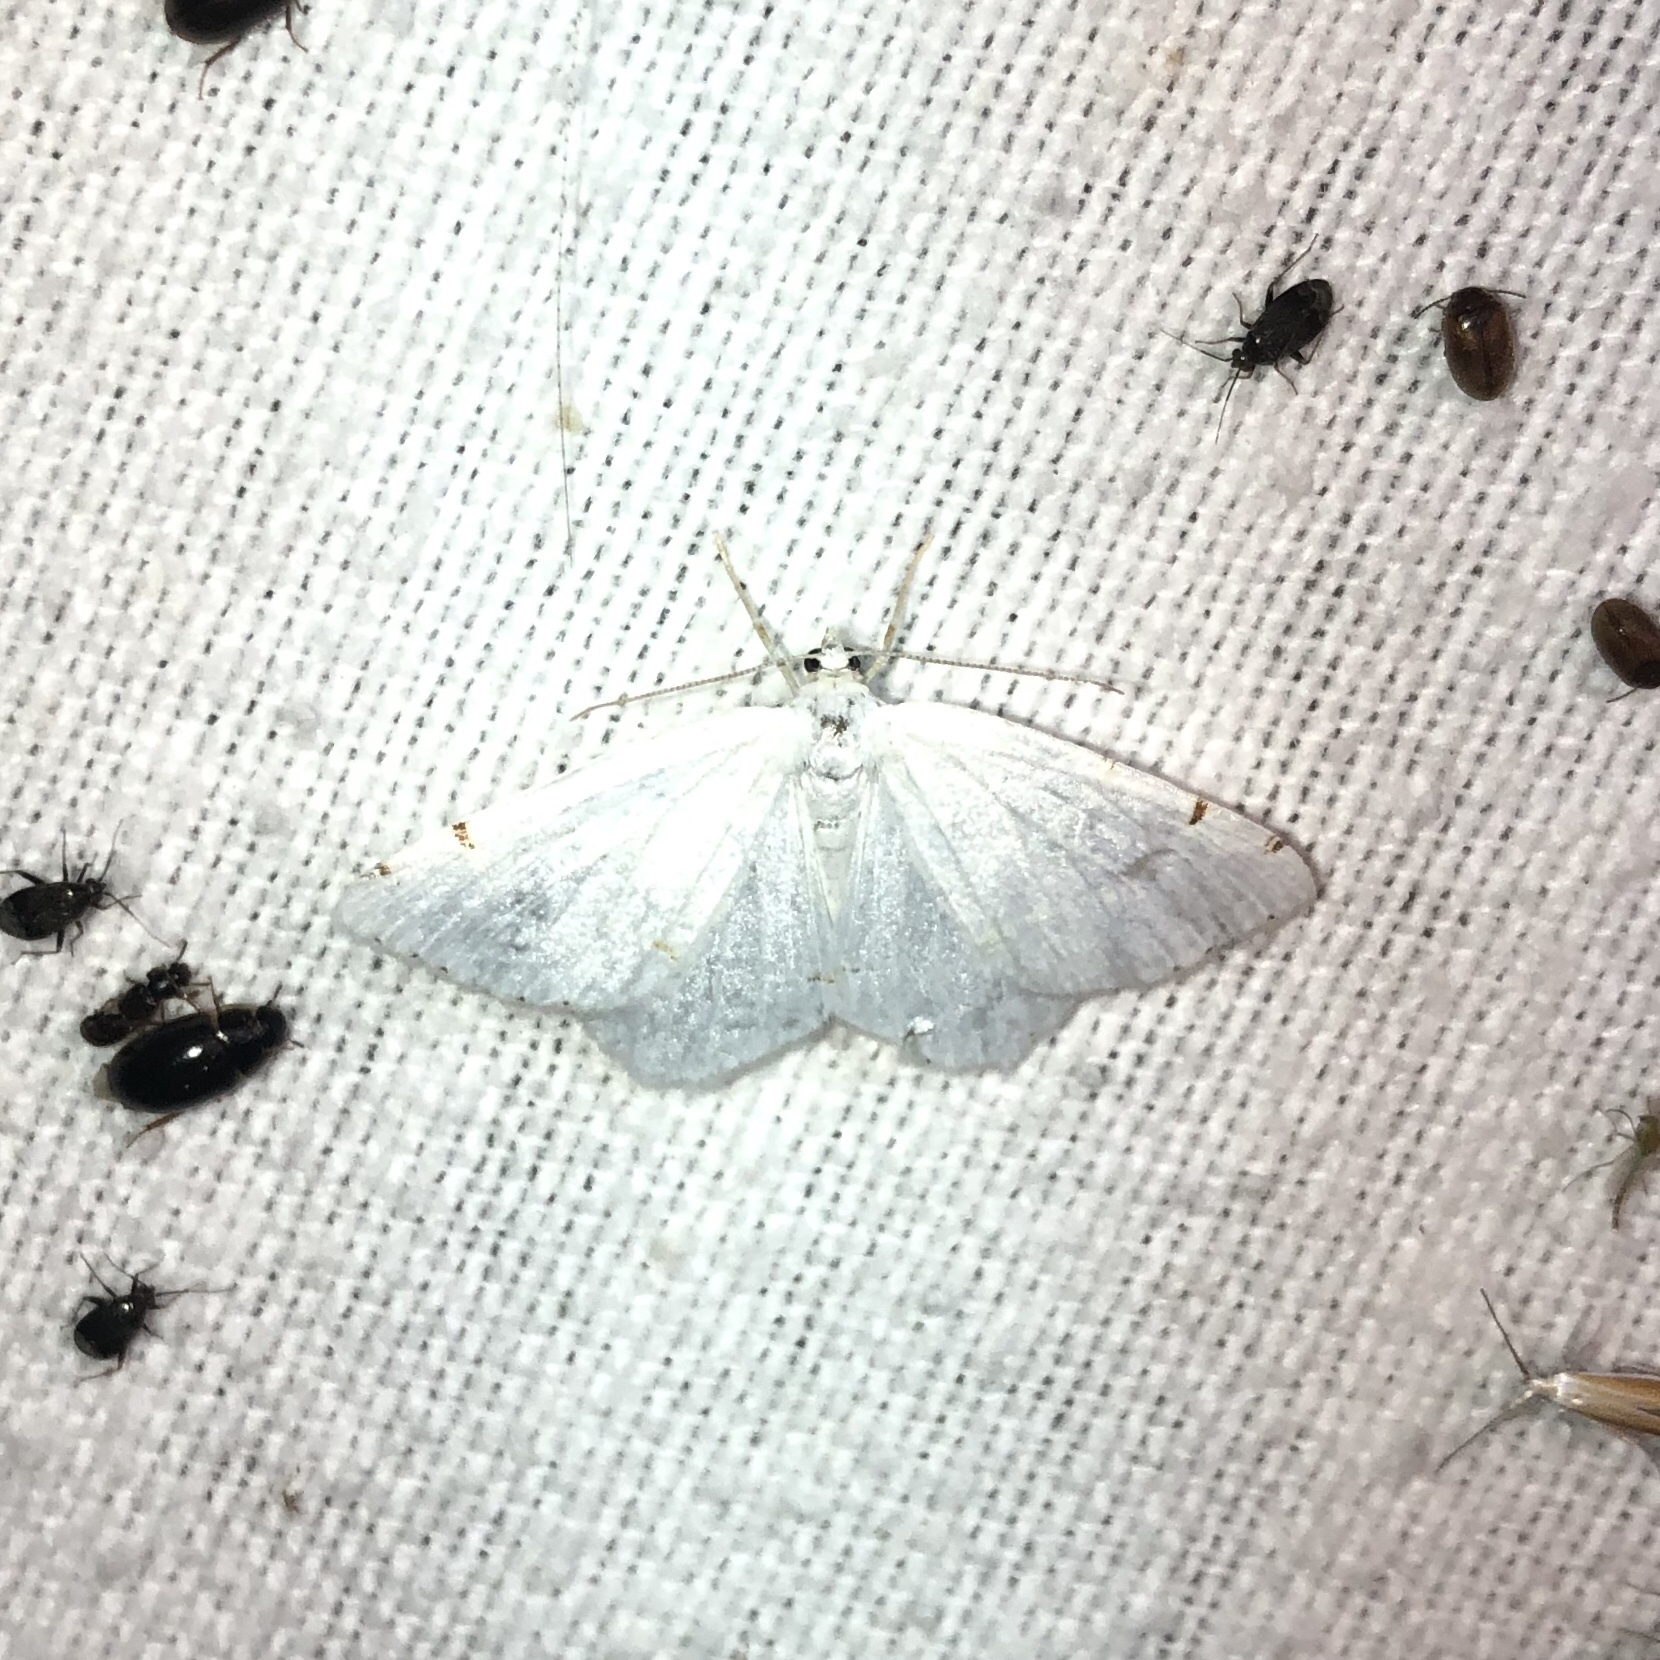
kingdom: Animalia
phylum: Arthropoda
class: Insecta
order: Lepidoptera
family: Geometridae
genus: Macaria
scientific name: Macaria pustularia
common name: Lesser maple spanworm moth
